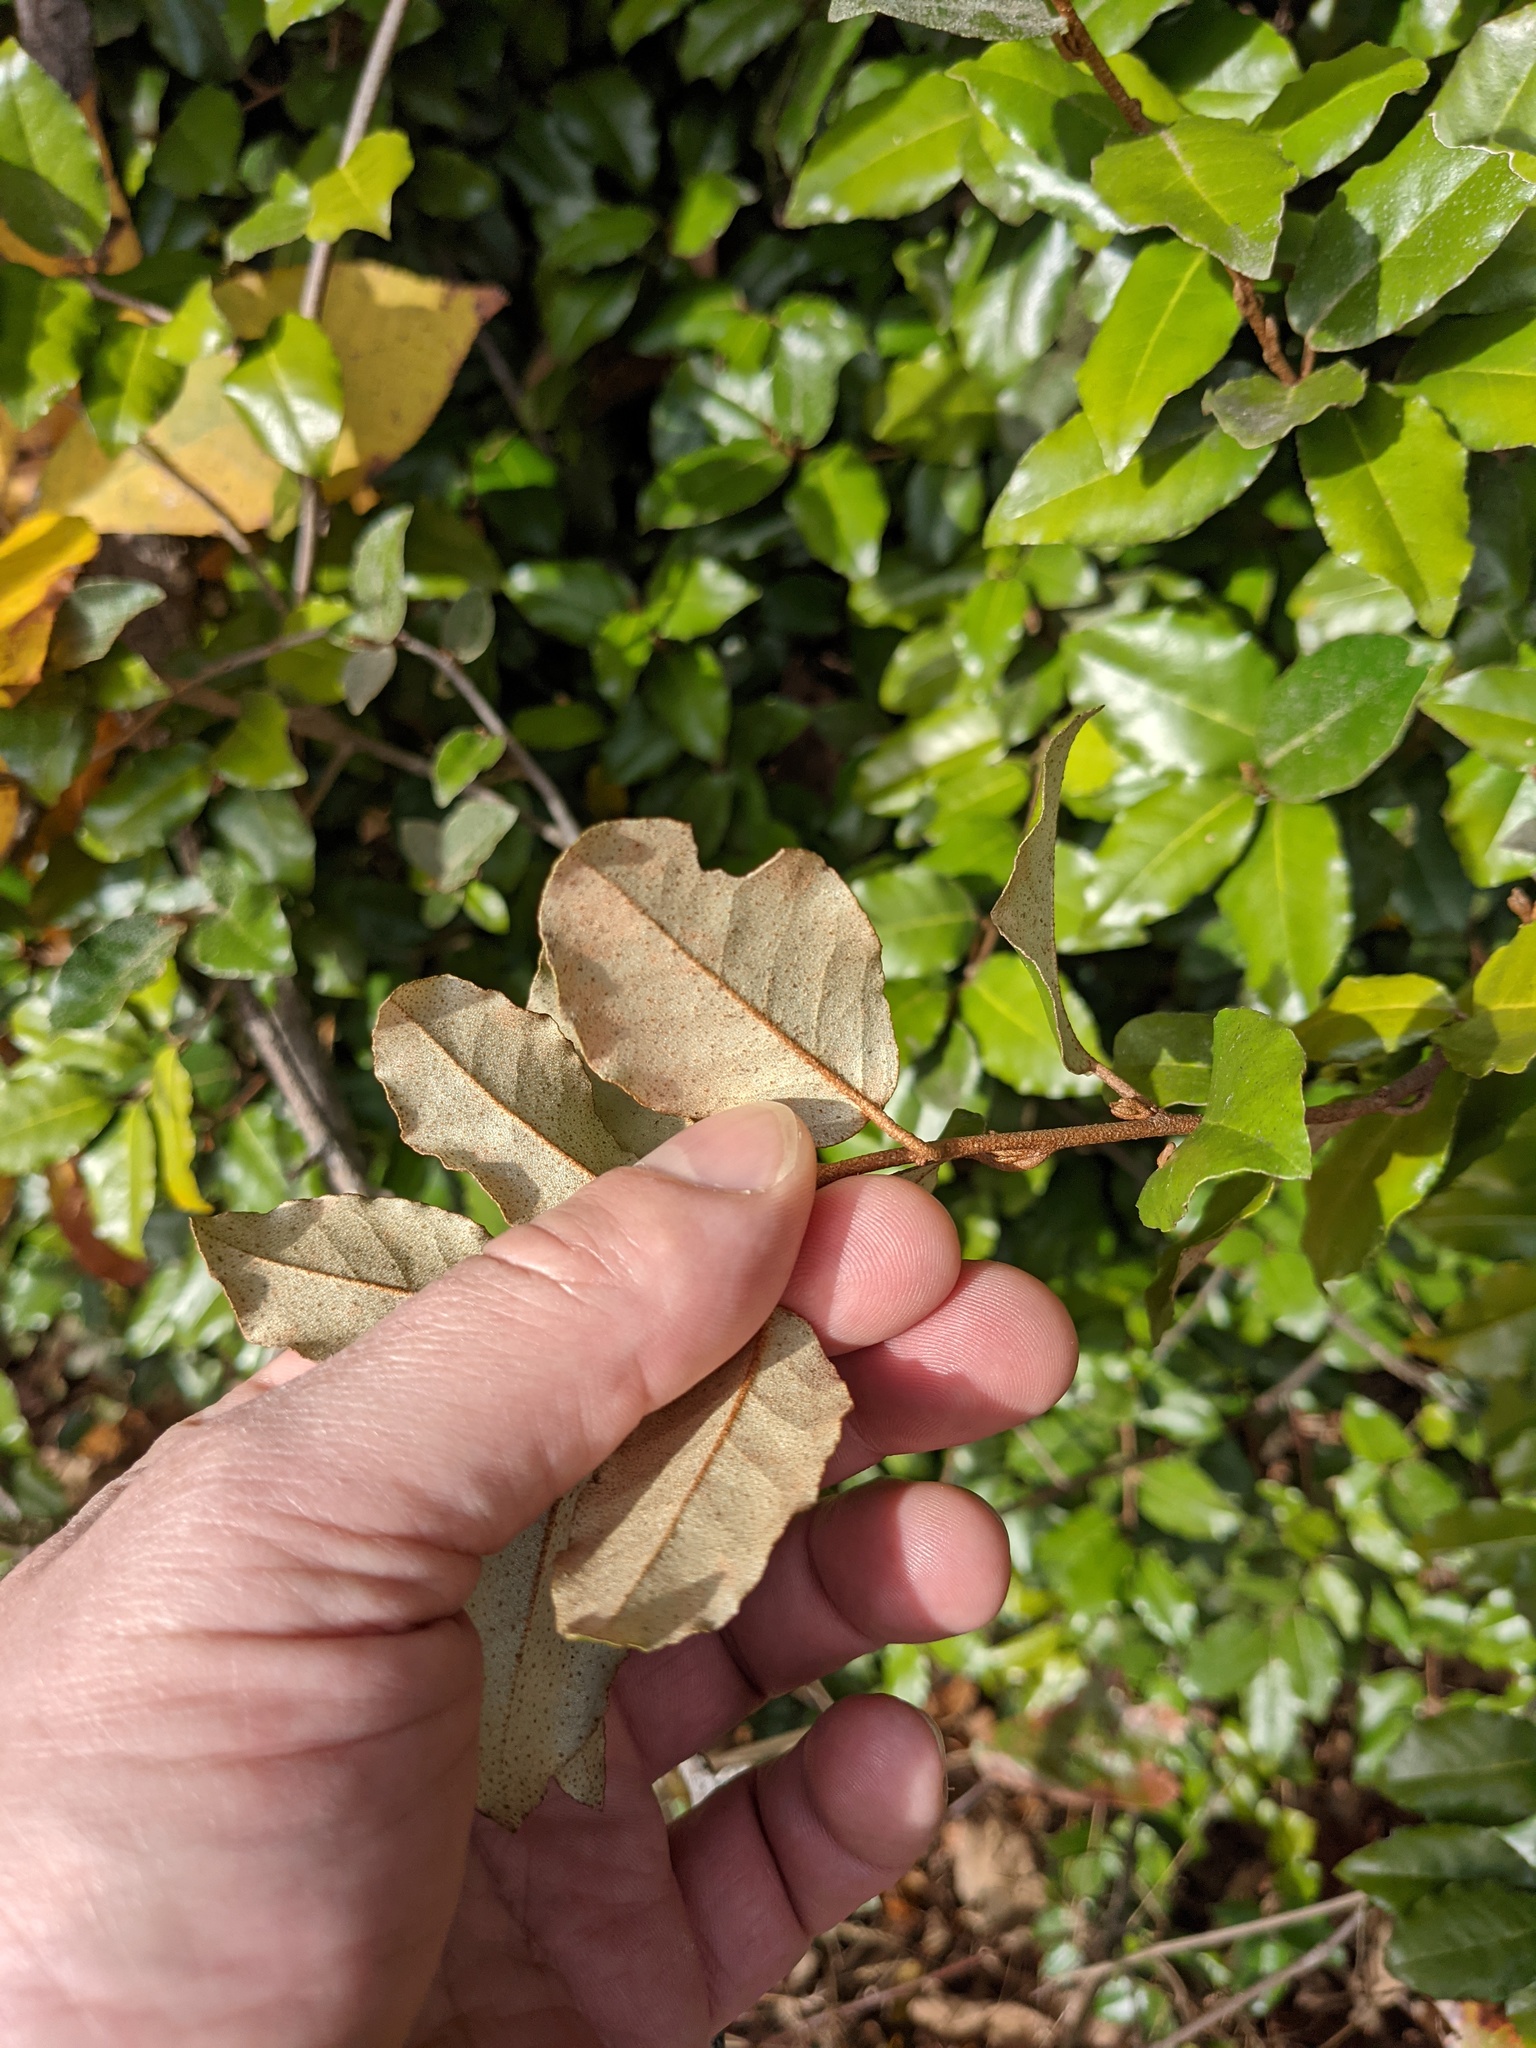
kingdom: Plantae
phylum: Tracheophyta
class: Magnoliopsida
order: Rosales
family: Elaeagnaceae
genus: Elaeagnus
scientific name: Elaeagnus pungens
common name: Spiny oleaster
